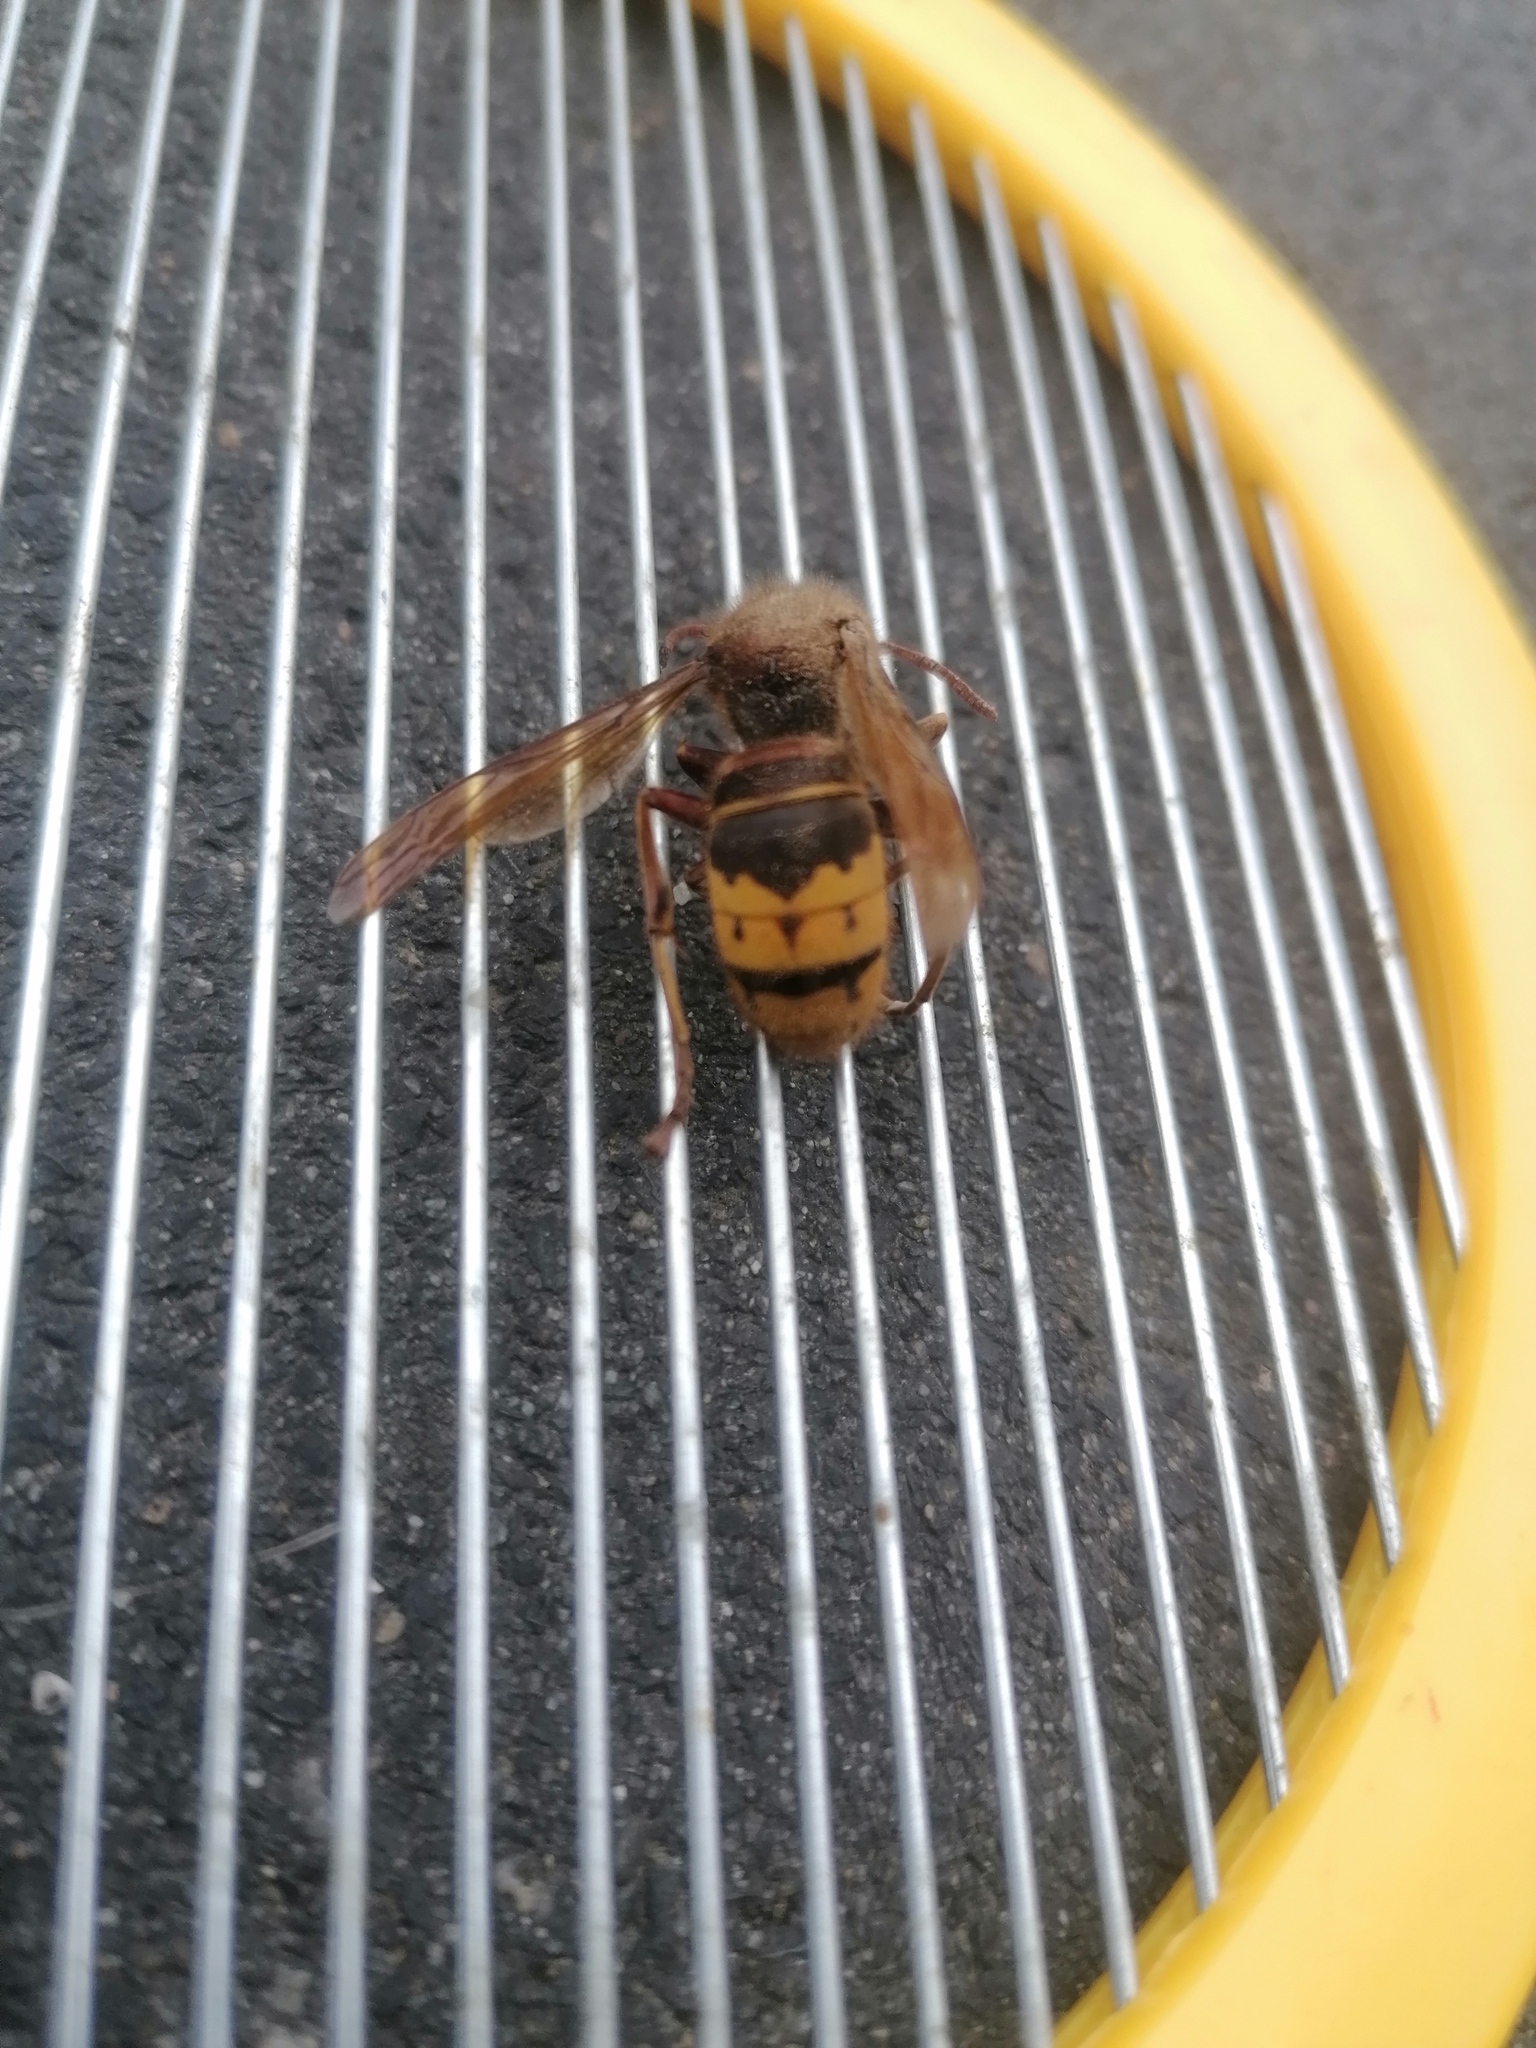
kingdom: Animalia
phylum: Arthropoda
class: Insecta
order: Hymenoptera
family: Vespidae
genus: Vespa
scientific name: Vespa crabro
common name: Hornet
